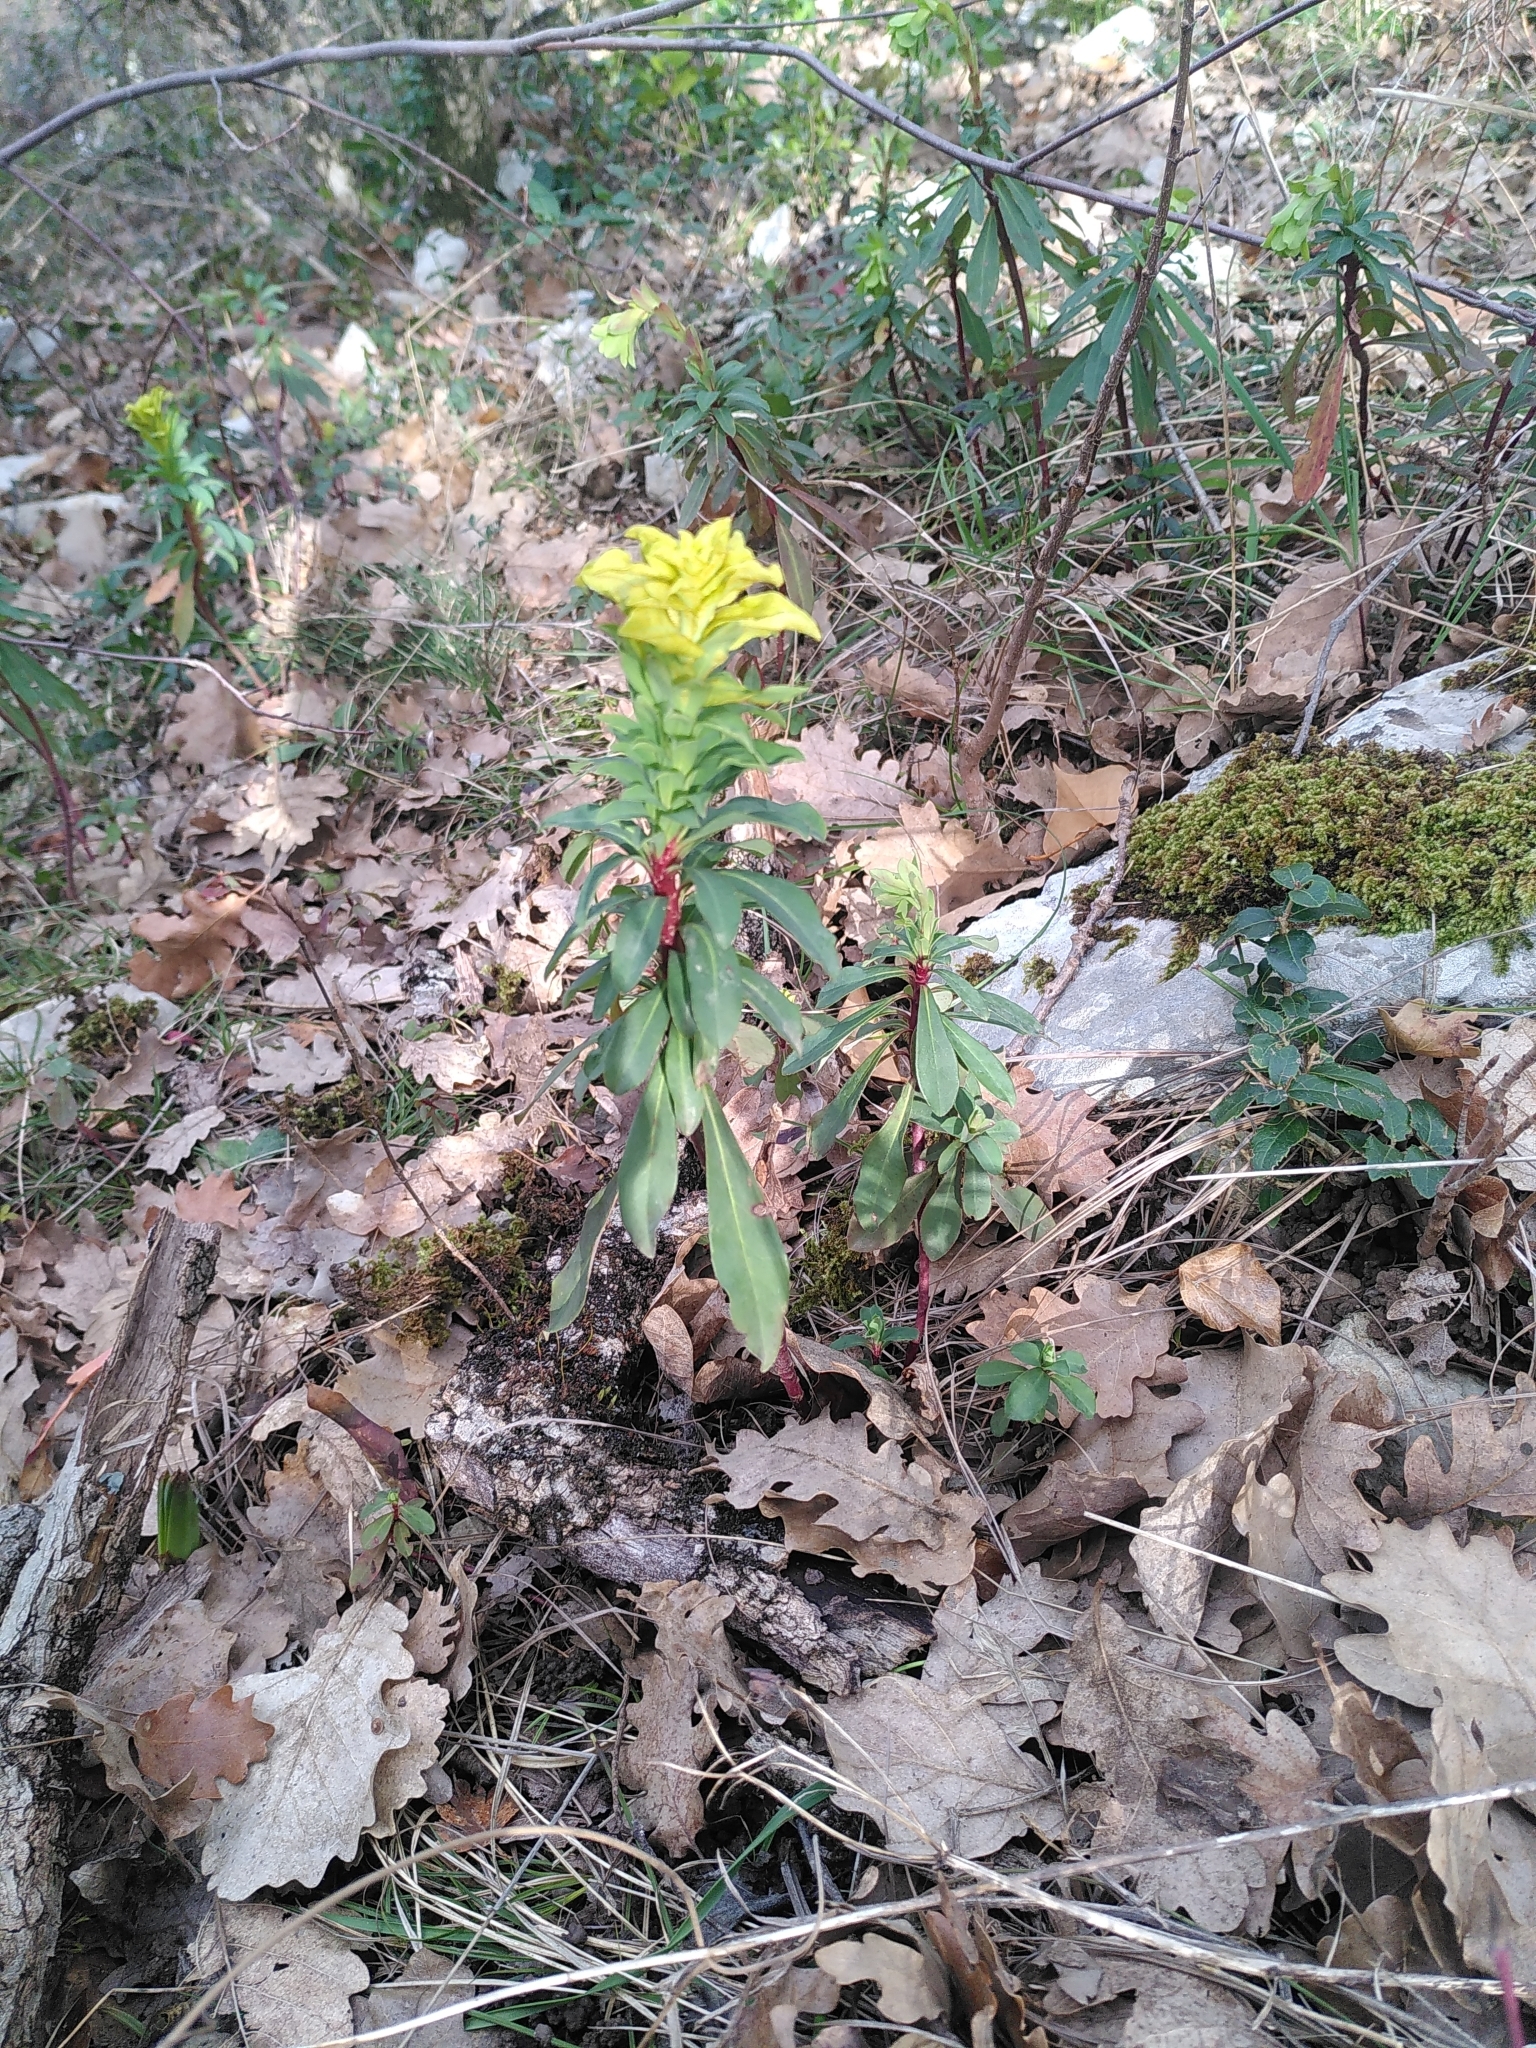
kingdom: Plantae
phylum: Tracheophyta
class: Magnoliopsida
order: Malpighiales
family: Euphorbiaceae
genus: Euphorbia
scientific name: Euphorbia amygdaloides
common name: Wood spurge
